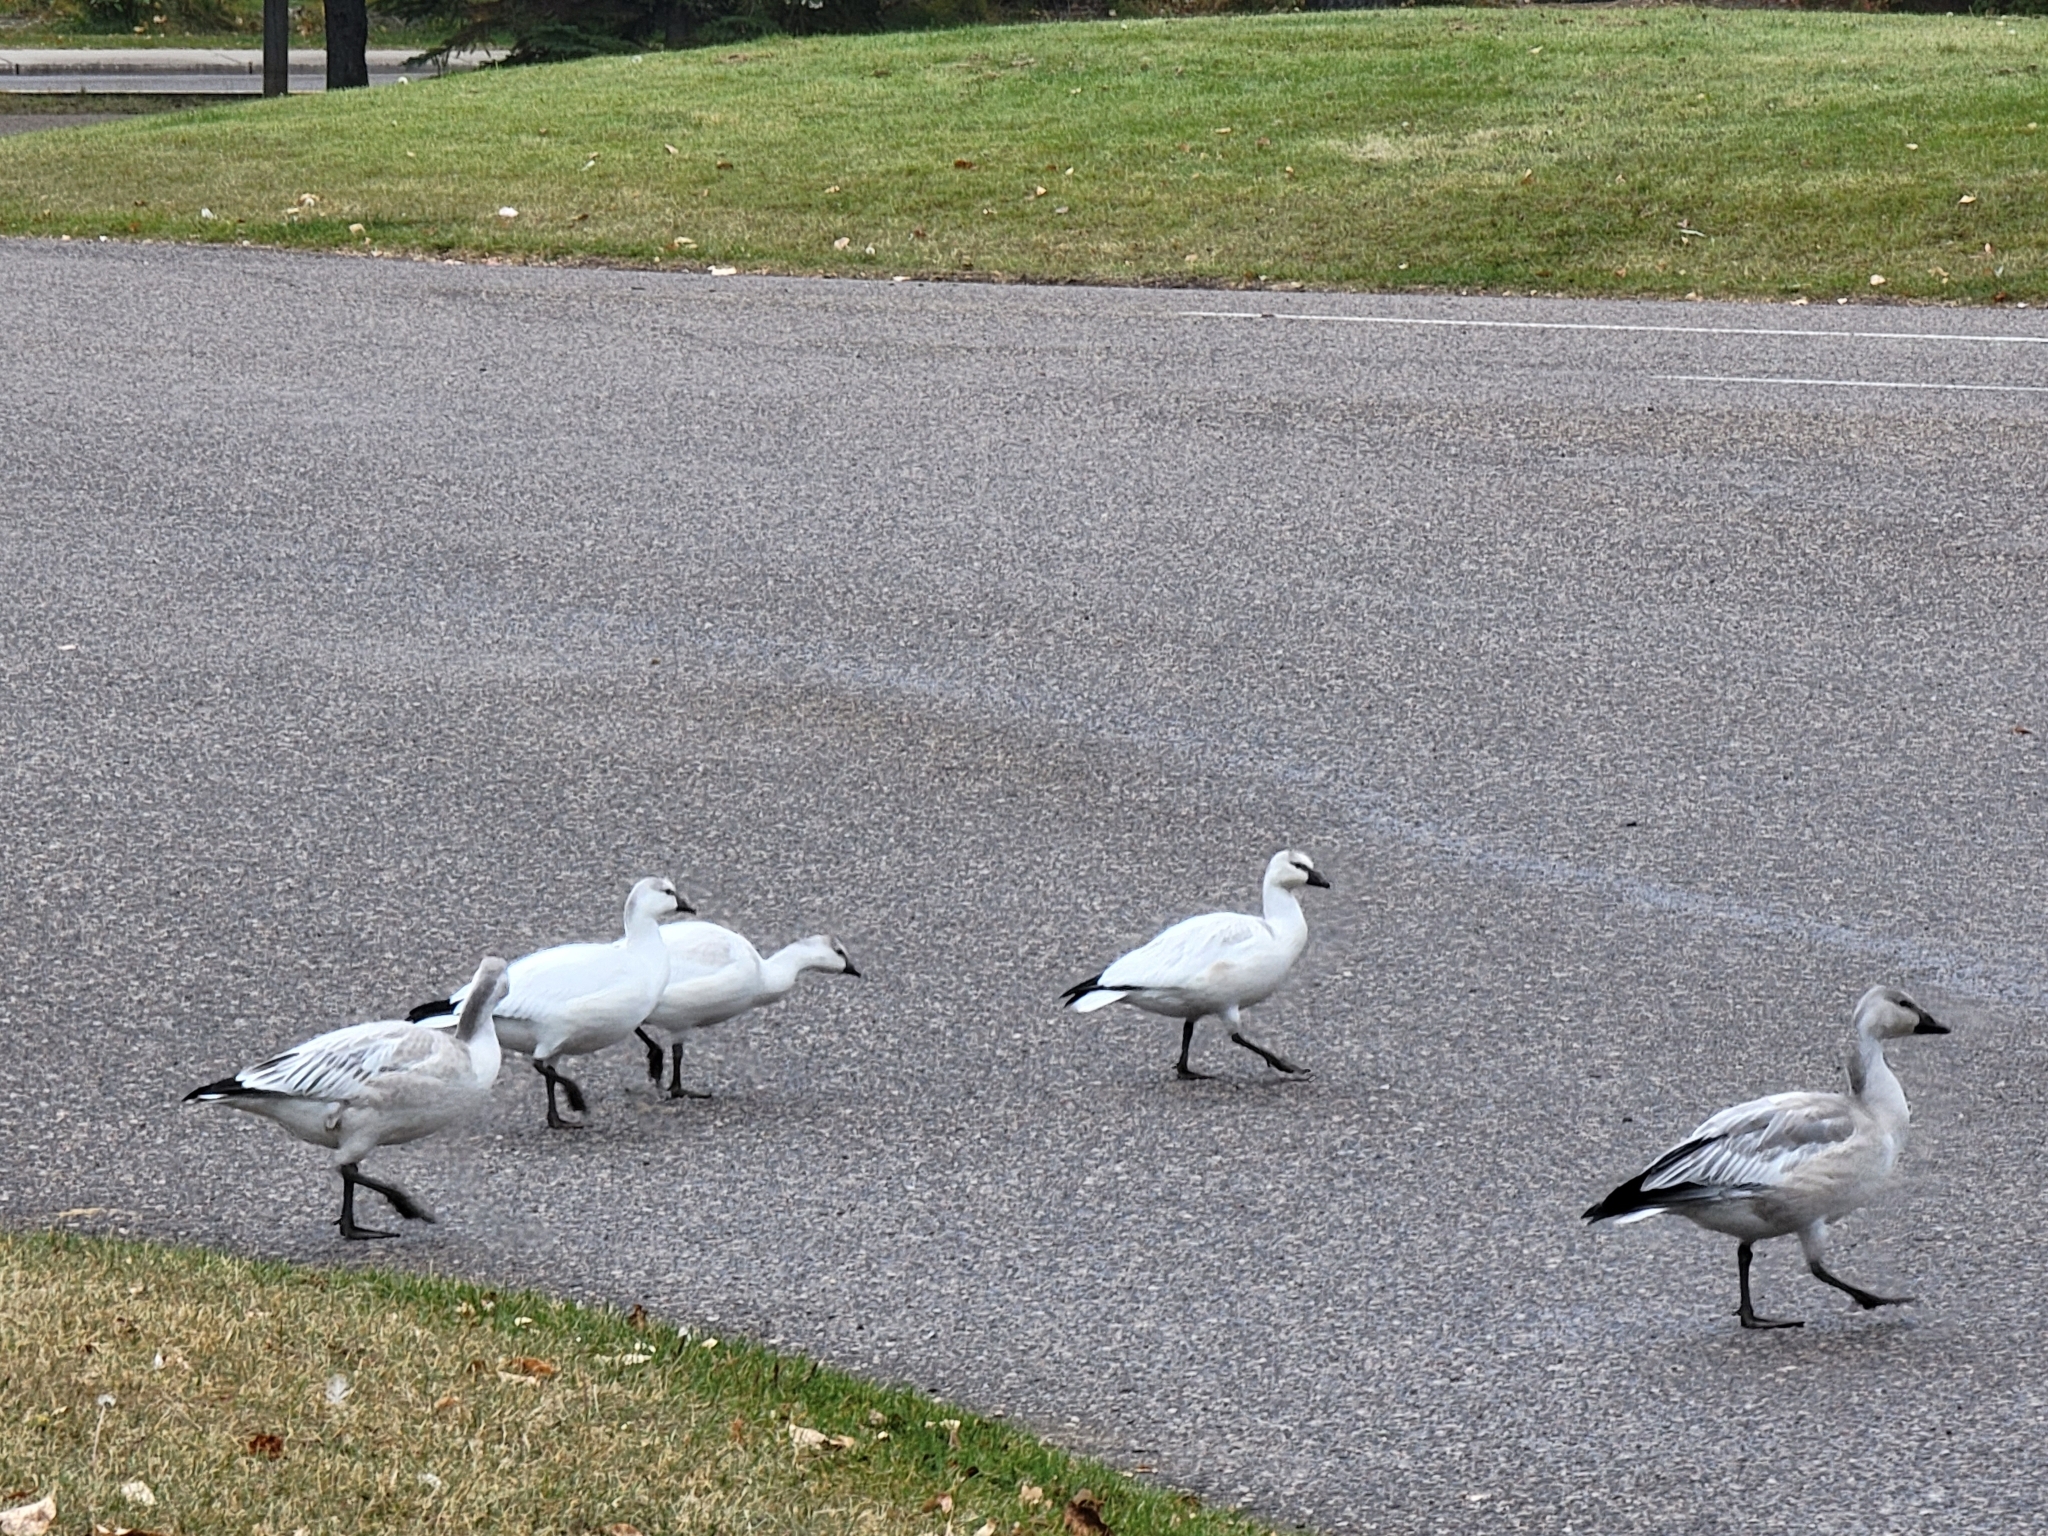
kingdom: Animalia
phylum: Chordata
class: Aves
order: Anseriformes
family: Anatidae
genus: Anser
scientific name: Anser rossii
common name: Ross's goose
